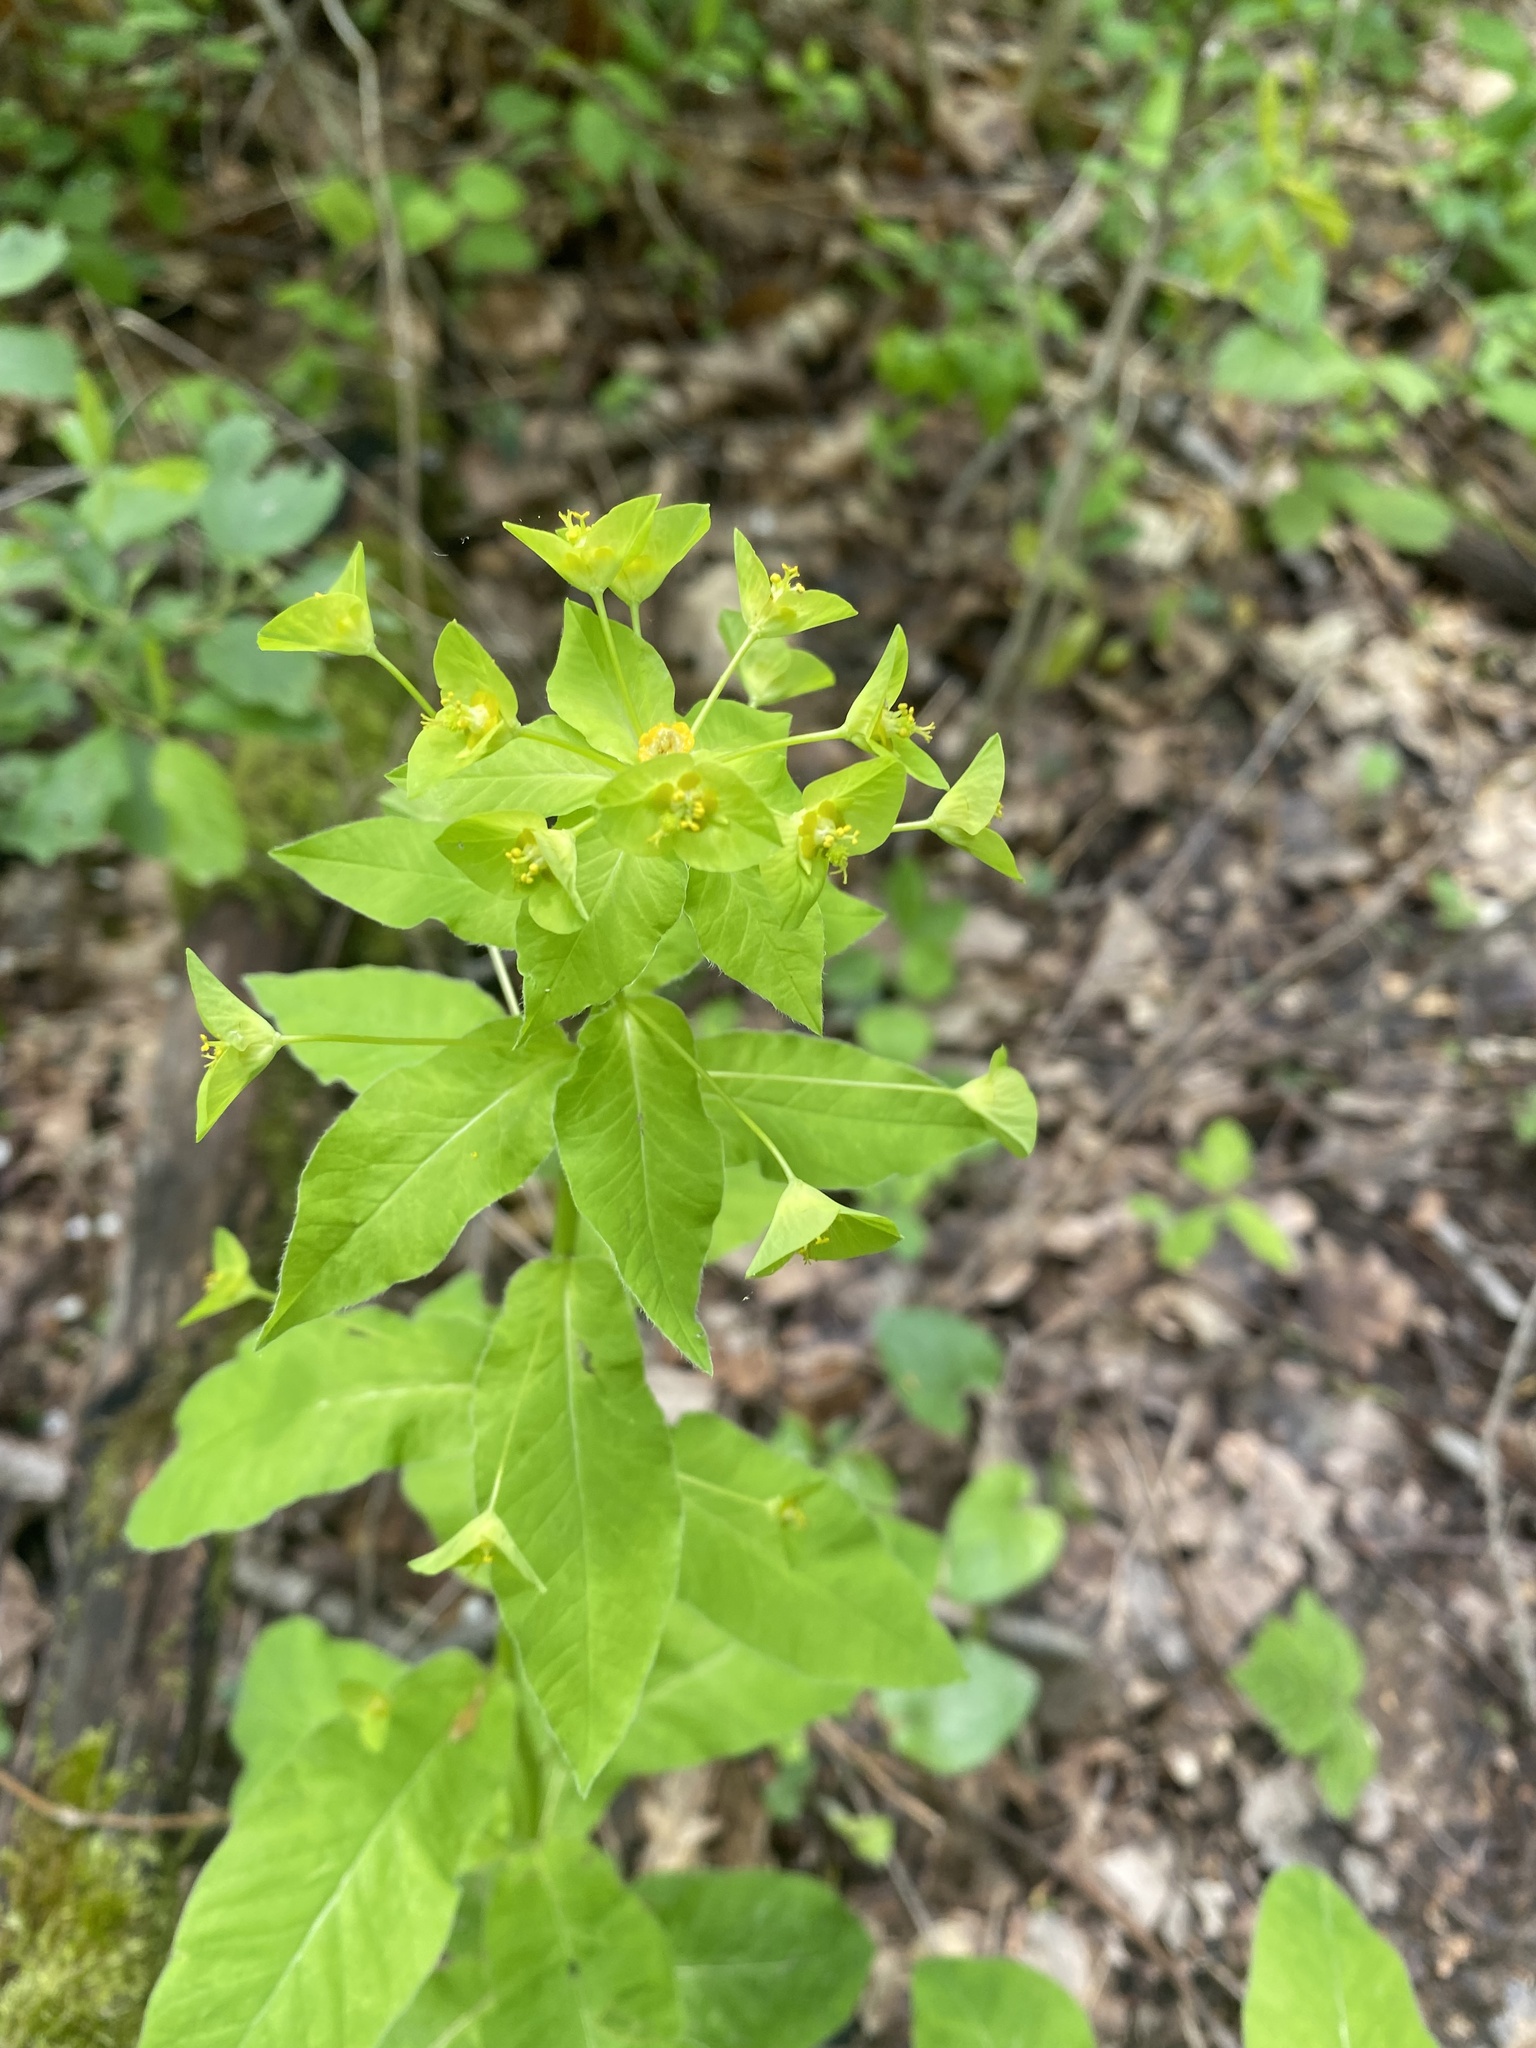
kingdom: Plantae
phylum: Tracheophyta
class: Magnoliopsida
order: Malpighiales
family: Euphorbiaceae
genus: Euphorbia
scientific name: Euphorbia squamosa
